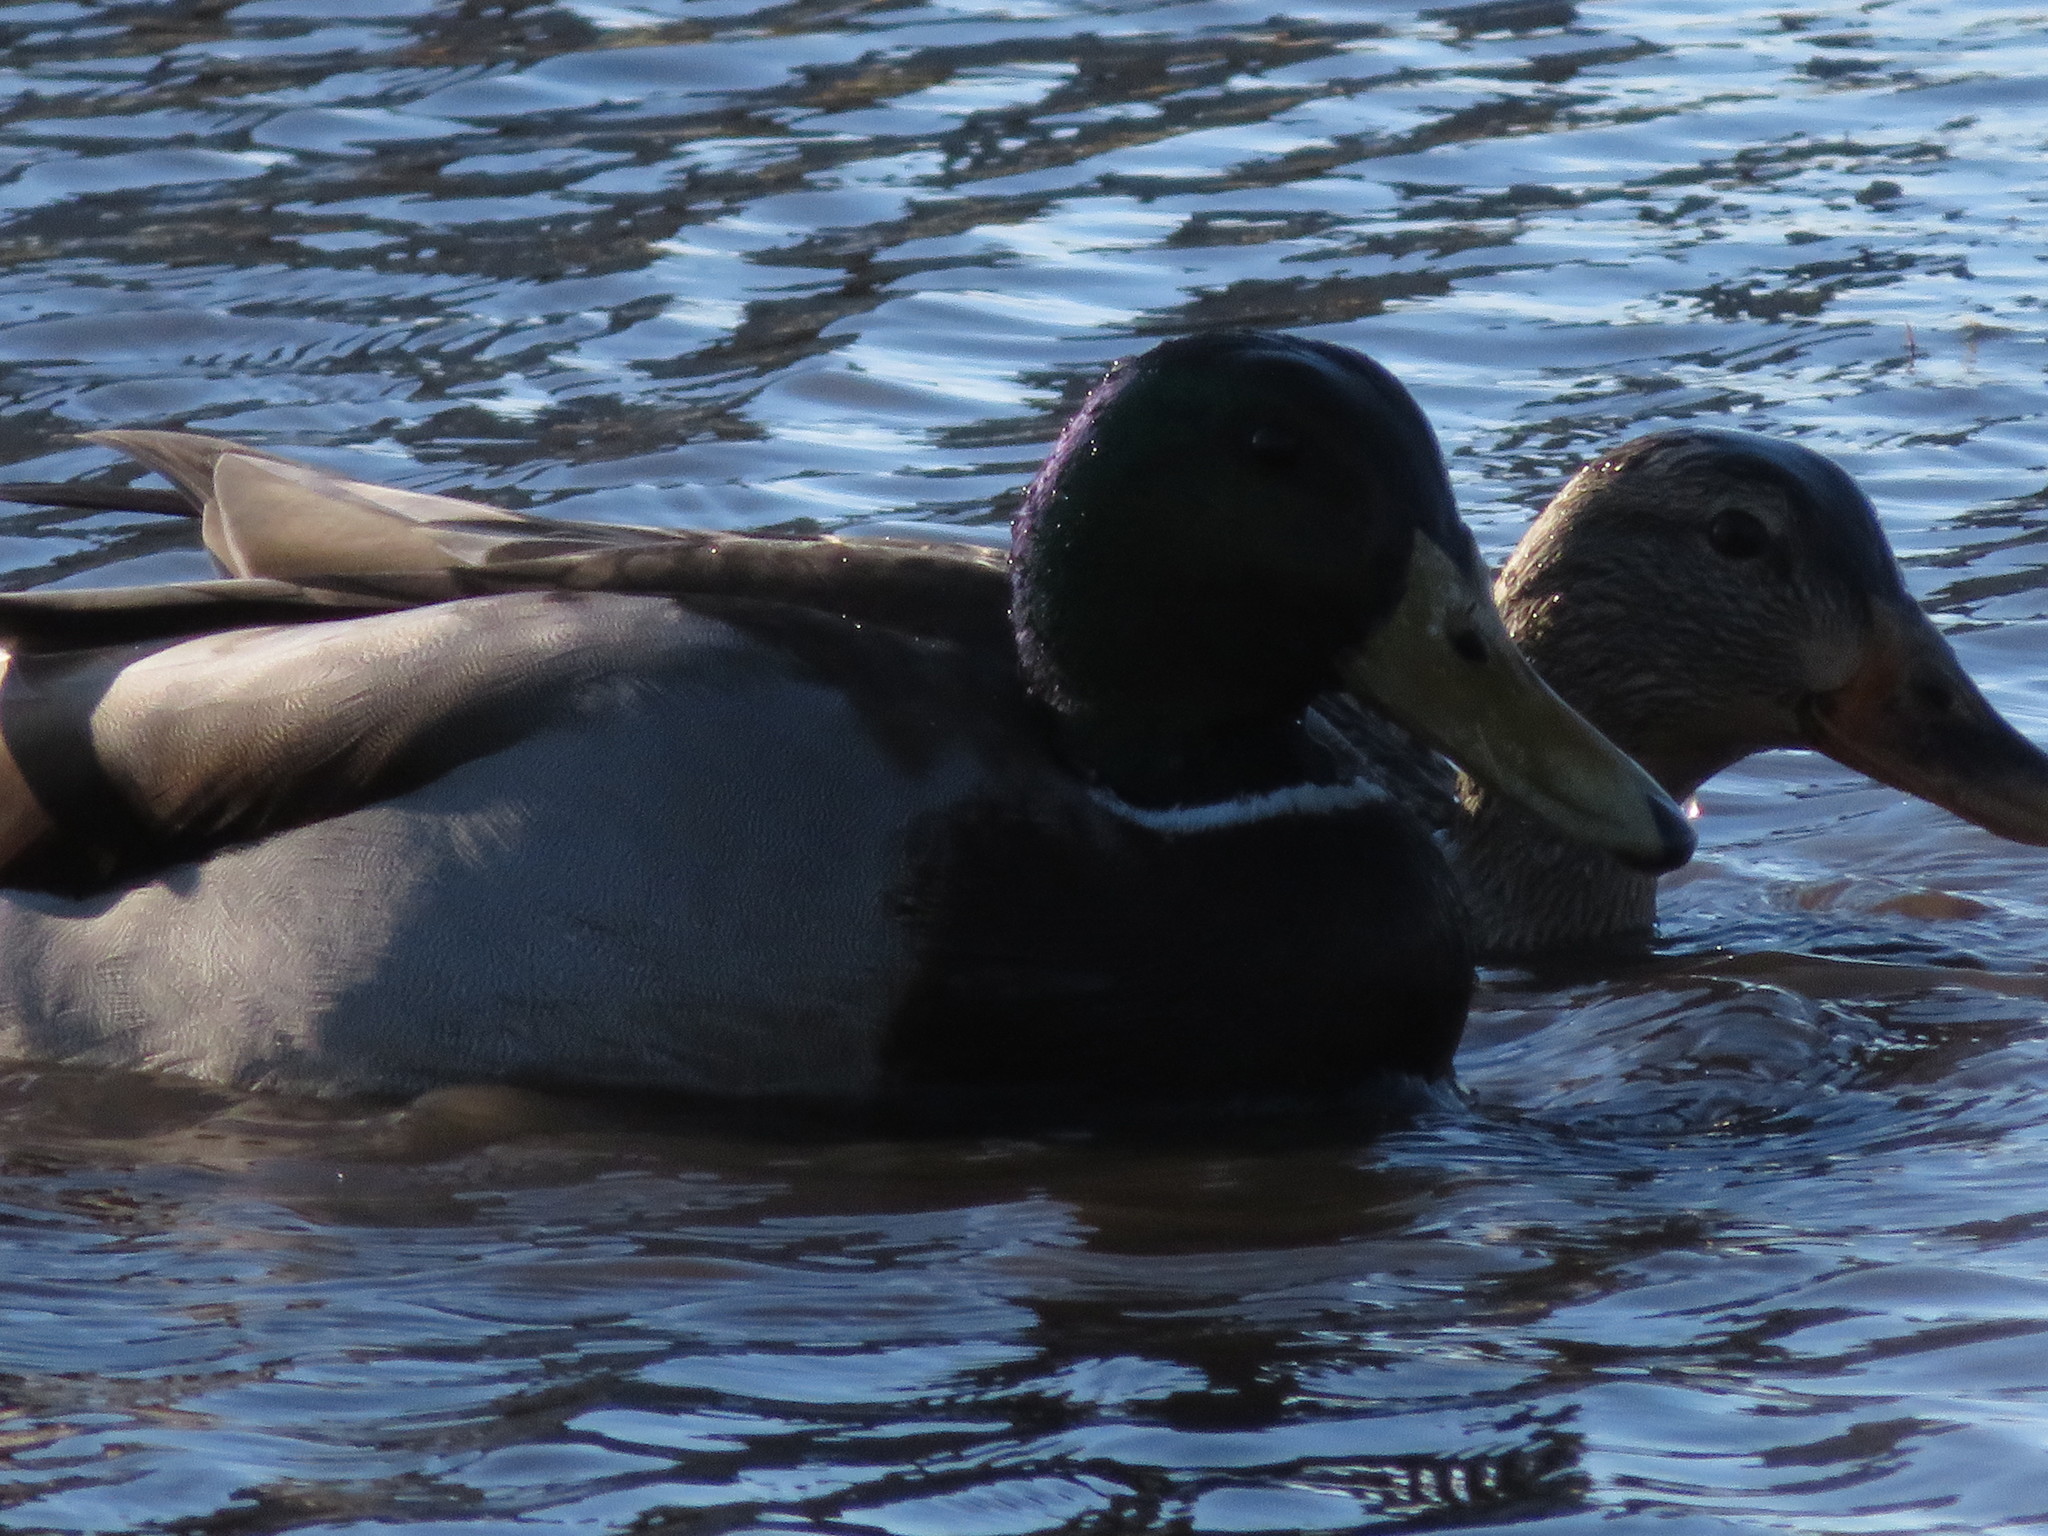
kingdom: Animalia
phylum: Chordata
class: Aves
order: Anseriformes
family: Anatidae
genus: Anas
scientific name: Anas platyrhynchos
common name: Mallard
